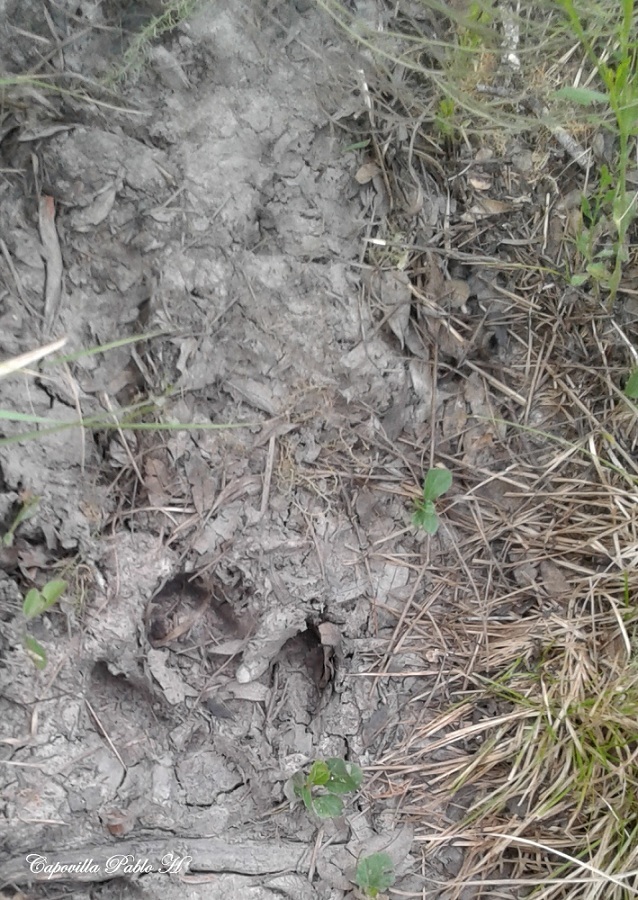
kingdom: Animalia
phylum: Chordata
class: Mammalia
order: Perissodactyla
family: Tapiridae
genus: Tapirus
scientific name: Tapirus terrestris
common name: Brazilian tapir
